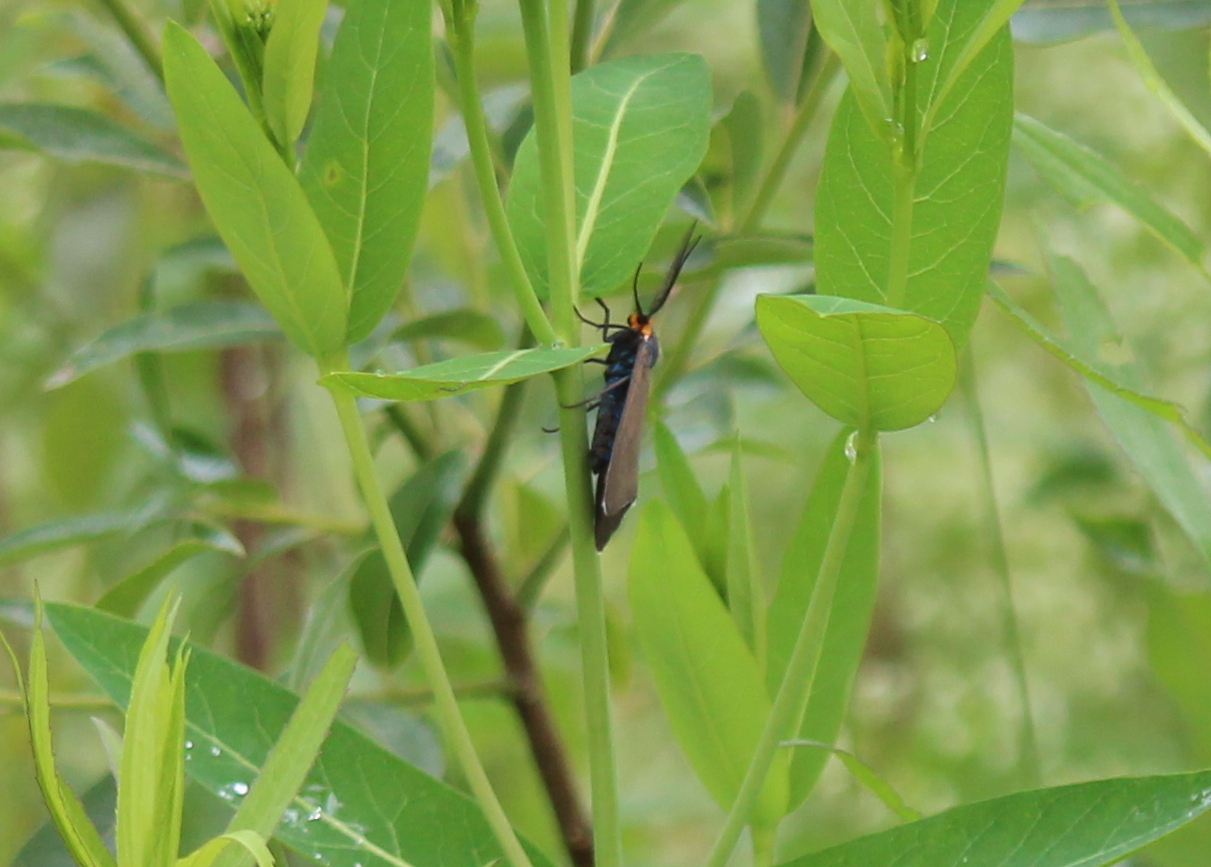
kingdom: Animalia
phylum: Arthropoda
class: Insecta
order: Lepidoptera
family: Erebidae
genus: Ctenucha
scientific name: Ctenucha virginica
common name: Virginia ctenucha moth
